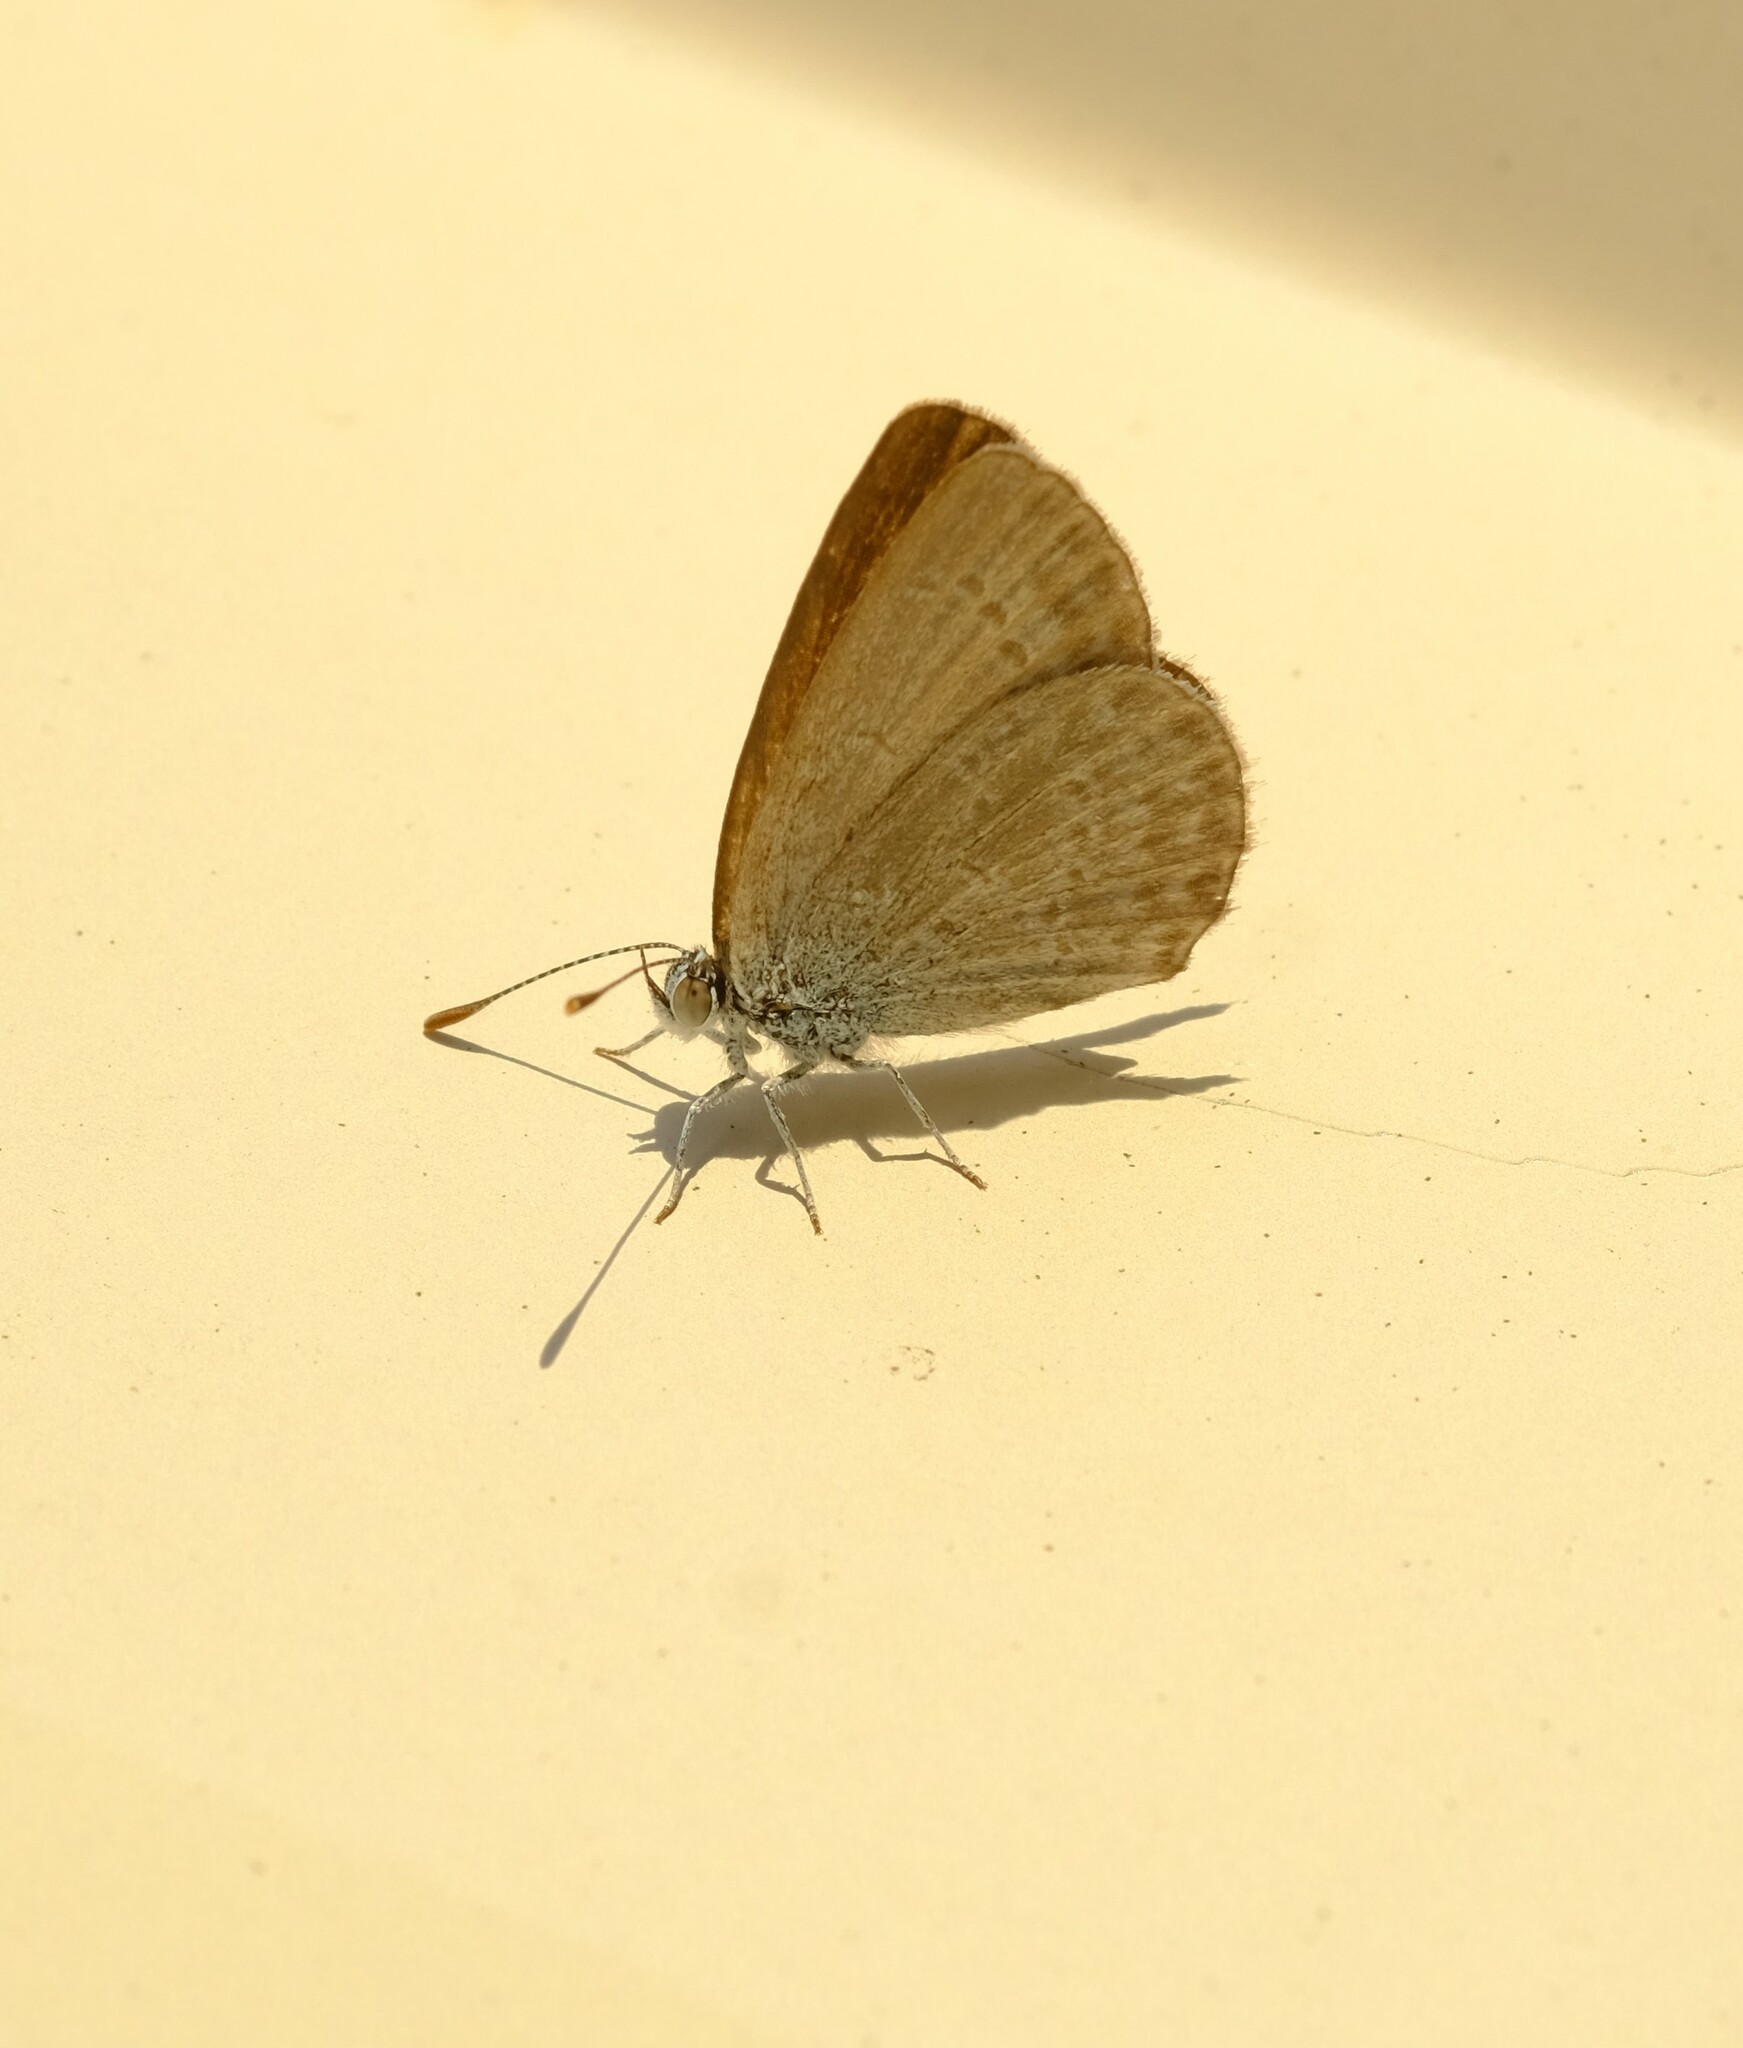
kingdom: Animalia
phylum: Arthropoda
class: Insecta
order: Lepidoptera
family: Lycaenidae
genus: Zizina
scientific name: Zizina otis
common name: Lesser grass blue
